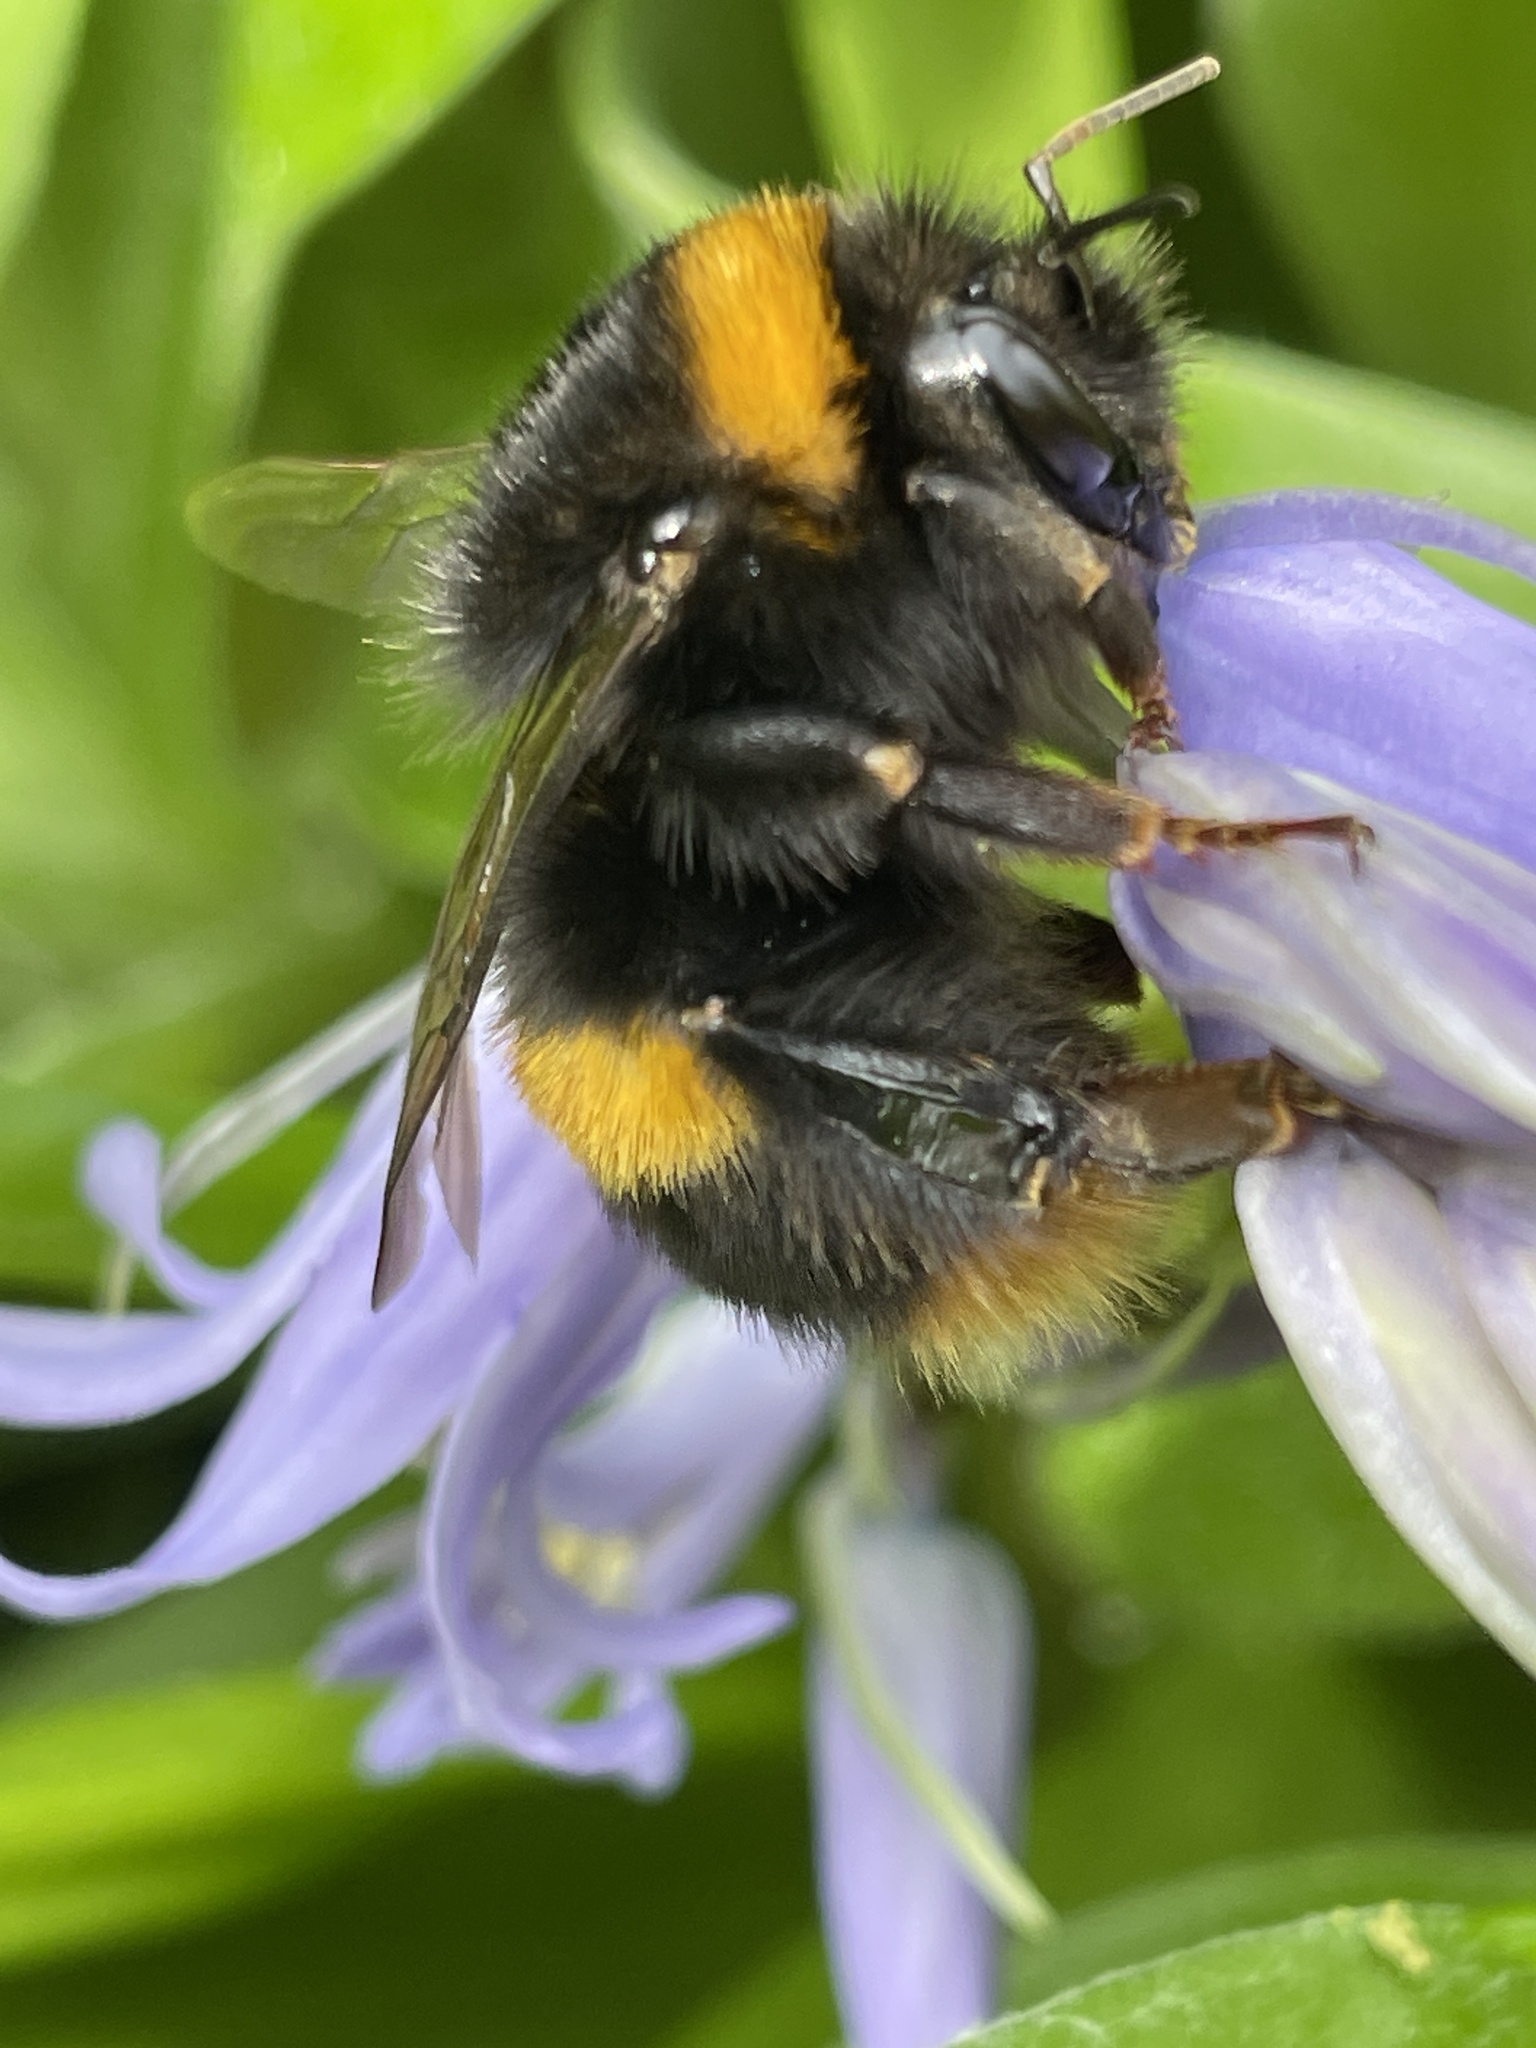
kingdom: Animalia
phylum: Arthropoda
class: Insecta
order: Hymenoptera
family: Apidae
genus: Bombus
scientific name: Bombus terrestris
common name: Buff-tailed bumblebee
